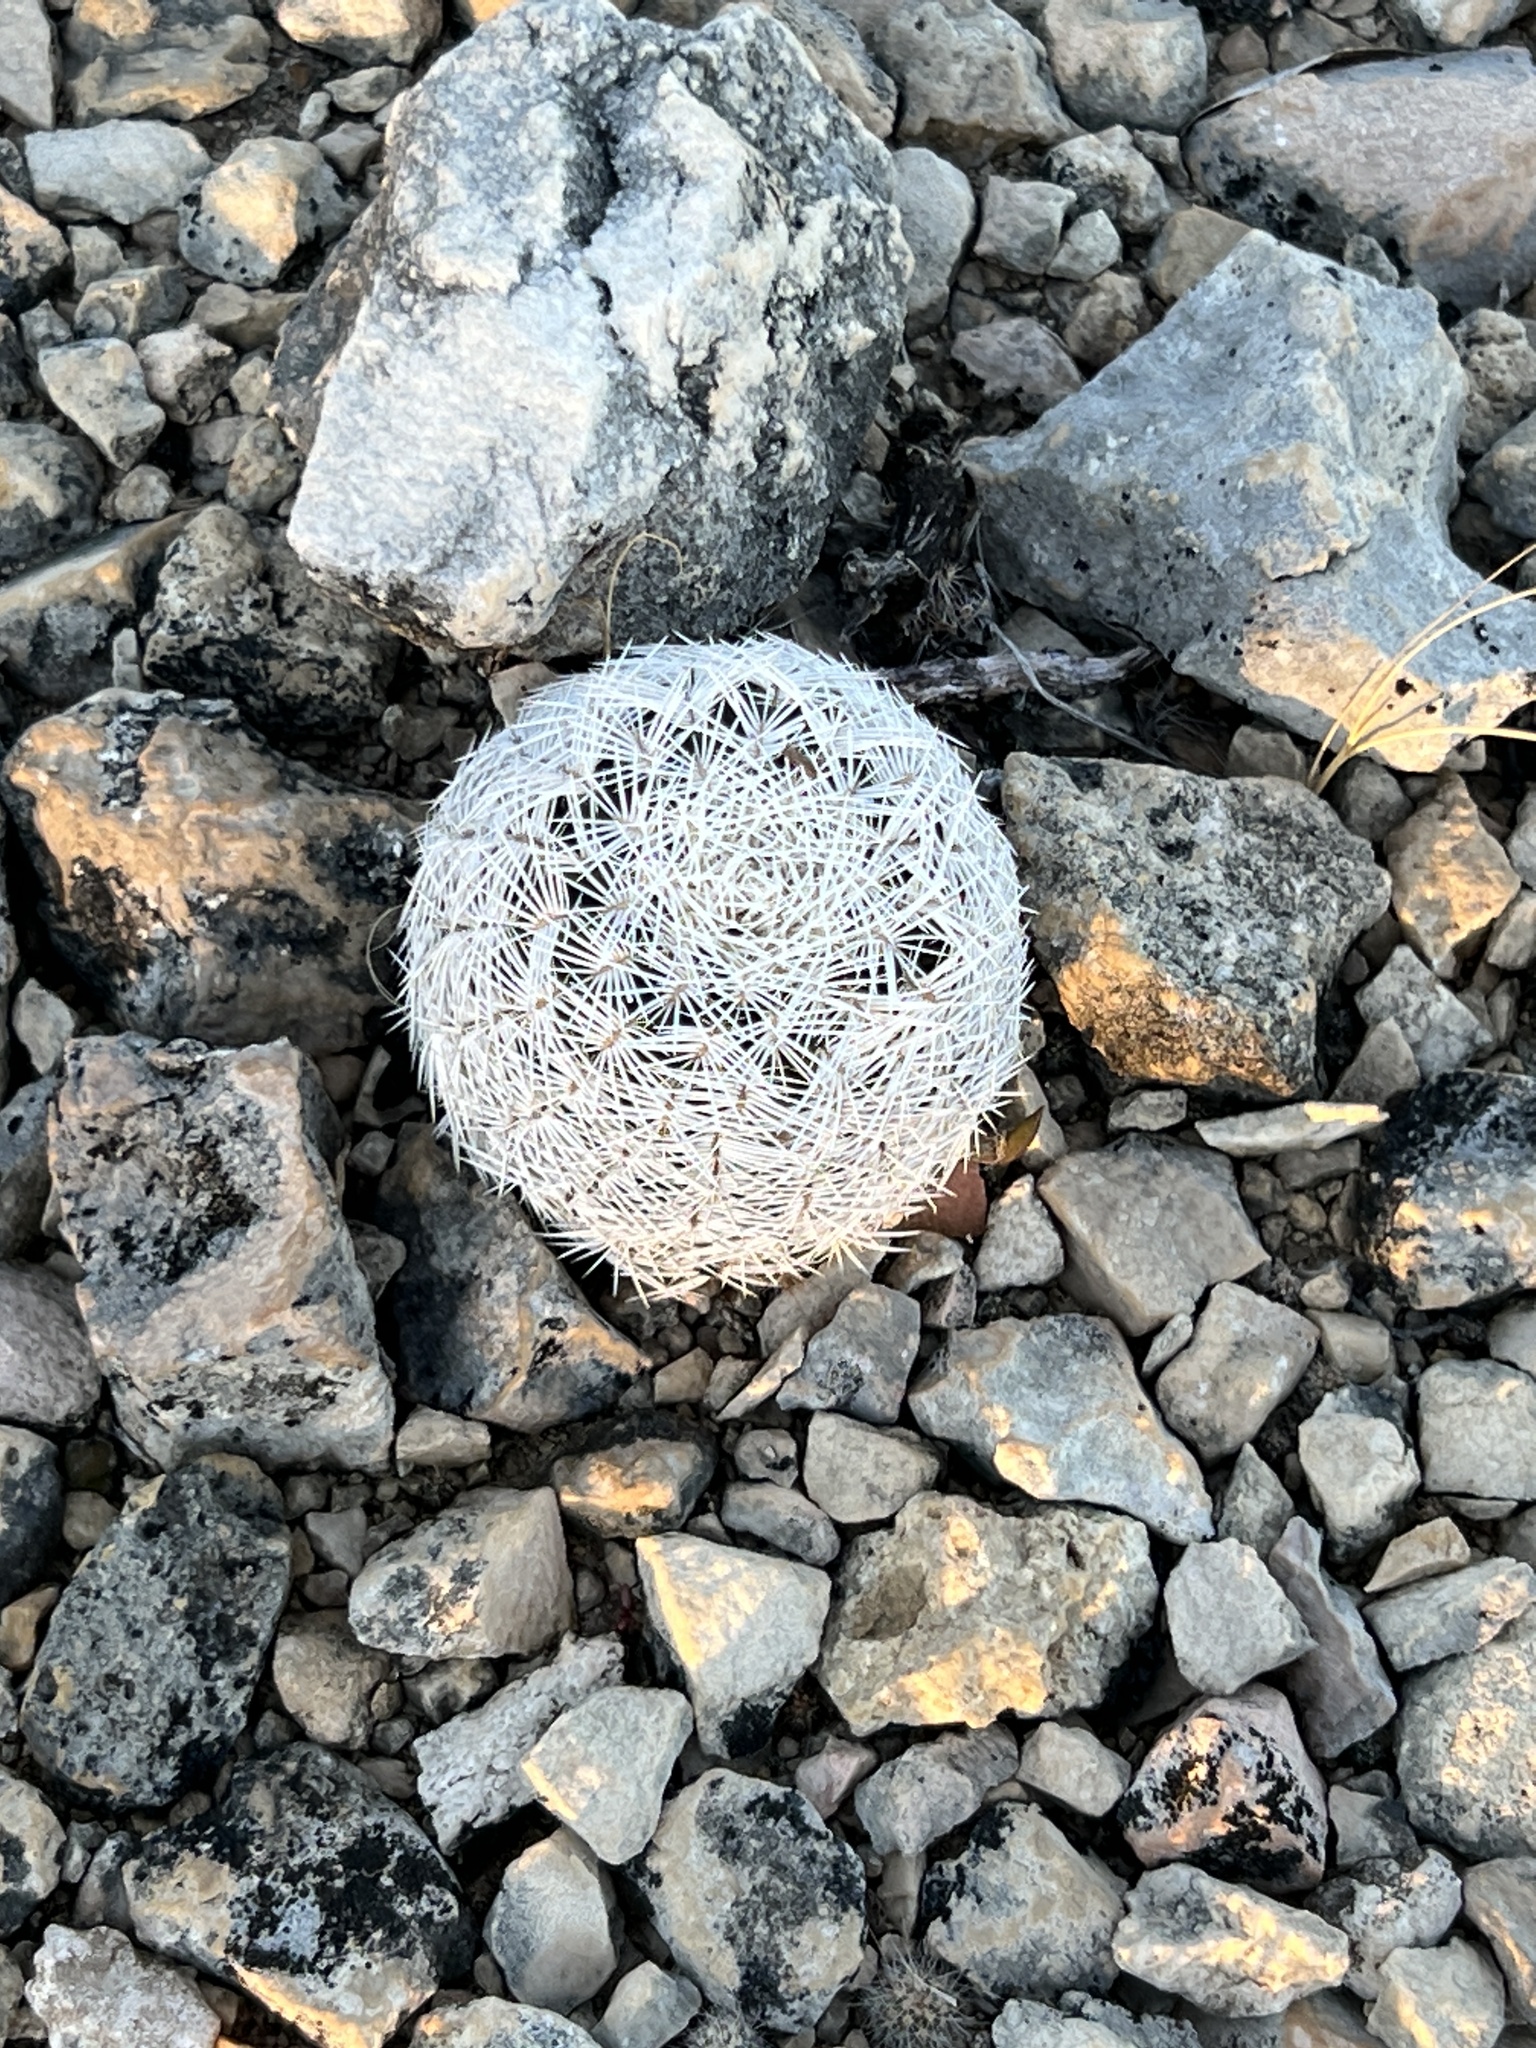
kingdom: Plantae
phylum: Tracheophyta
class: Magnoliopsida
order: Caryophyllales
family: Cactaceae
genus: Echinocereus
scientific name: Echinocereus reichenbachii
